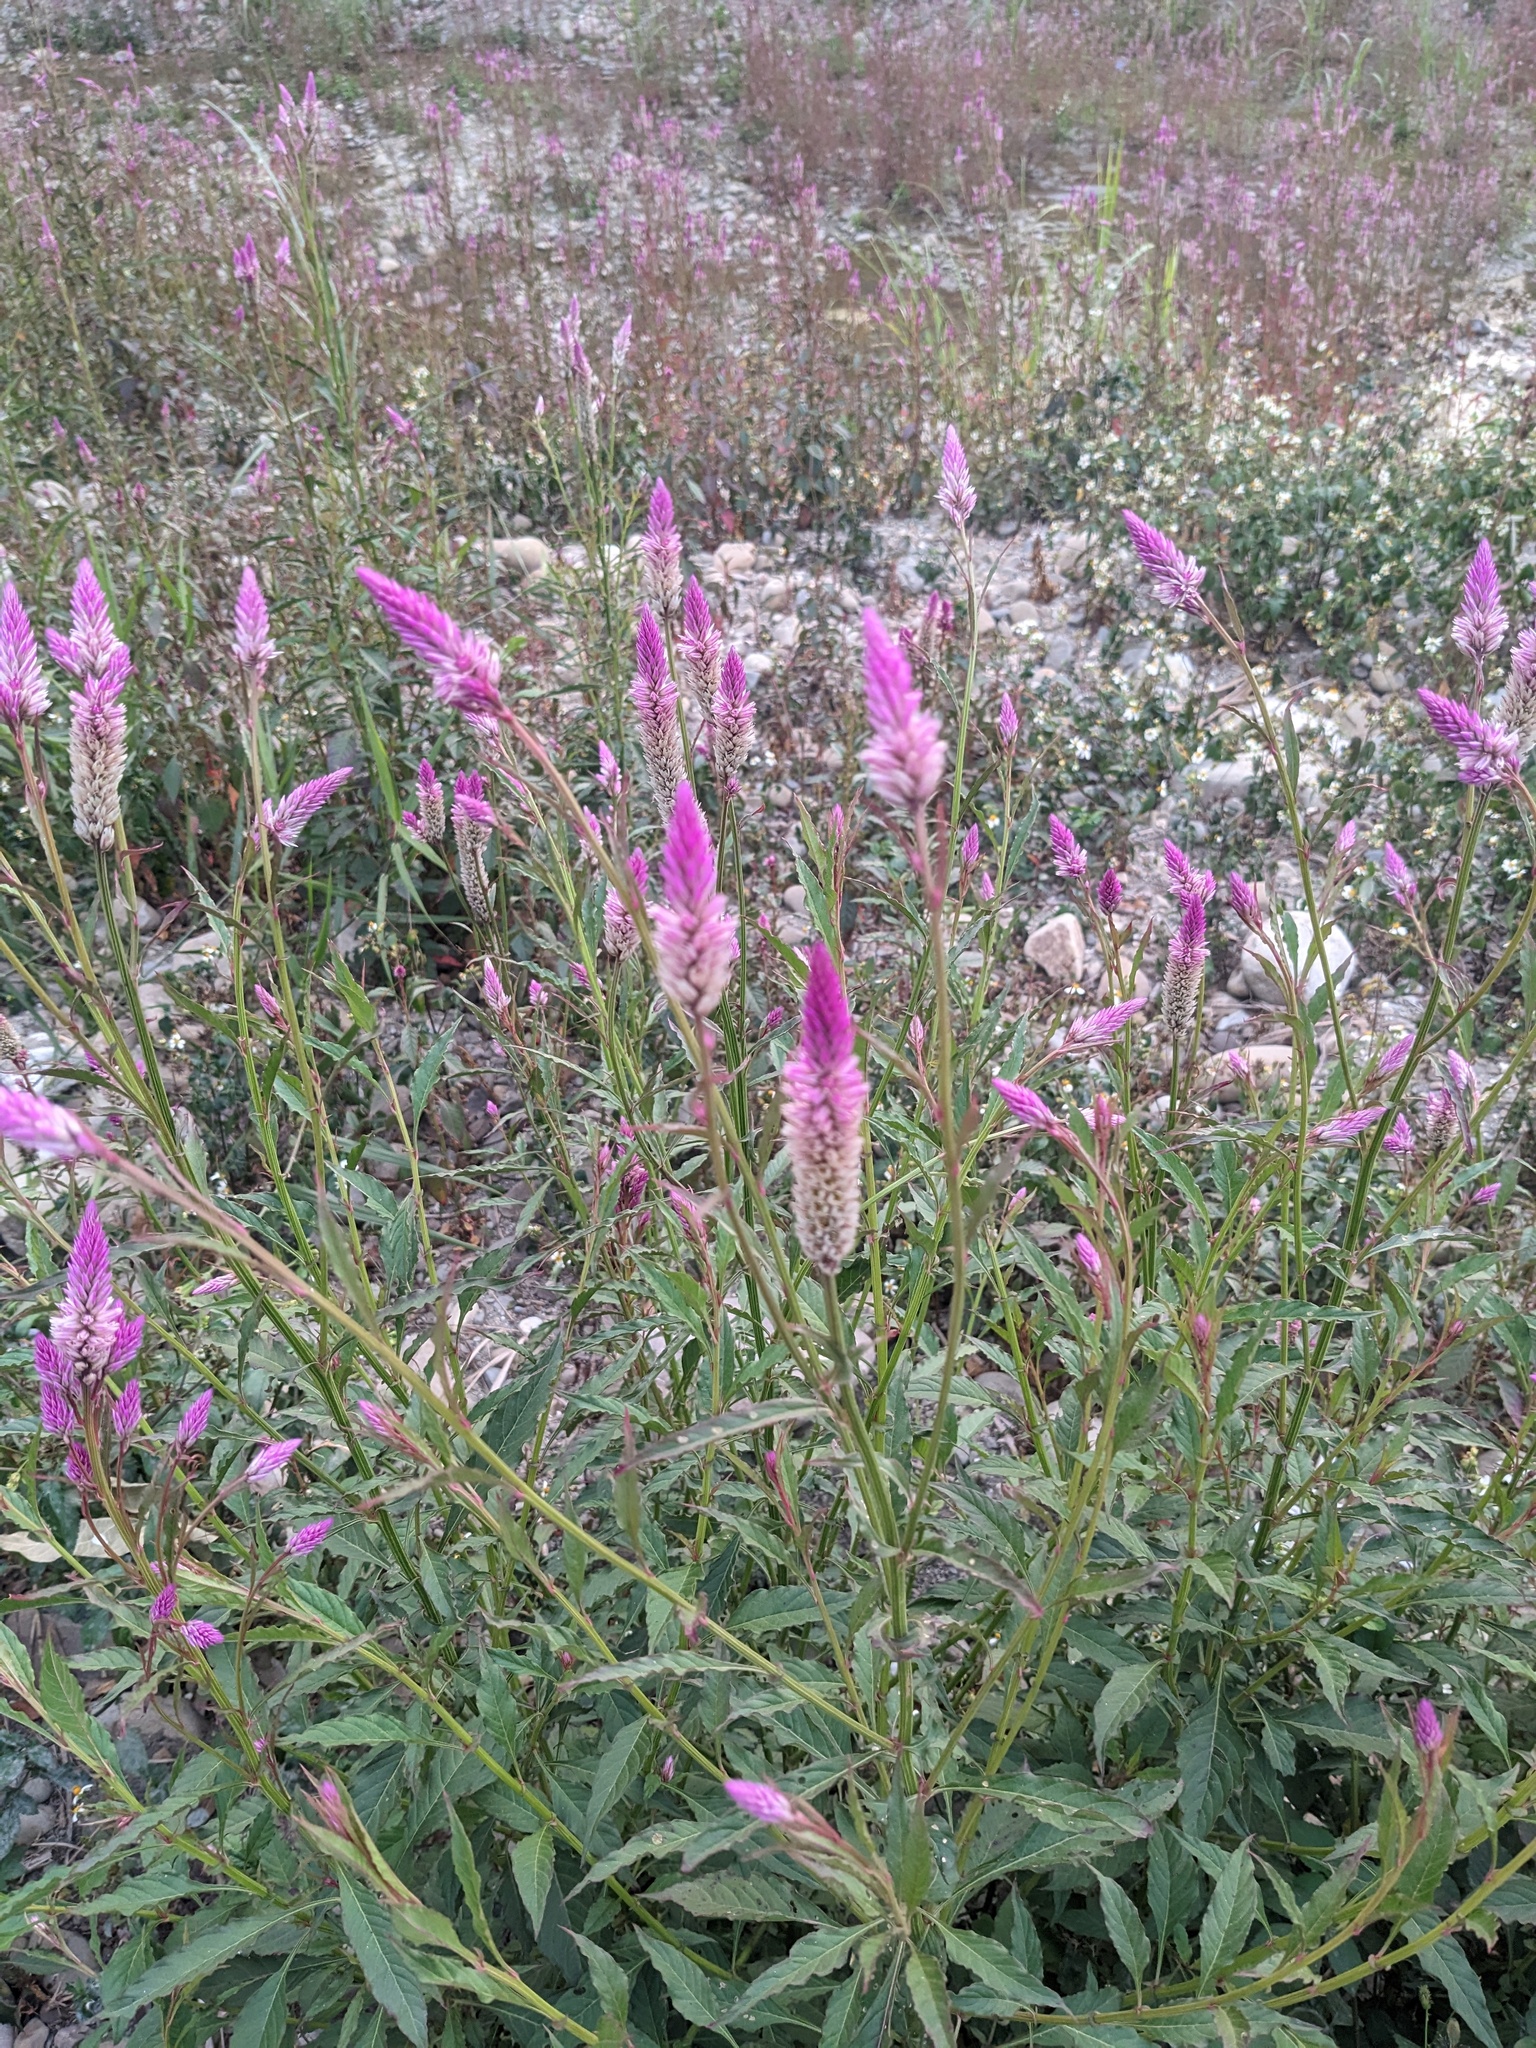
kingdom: Plantae
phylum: Tracheophyta
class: Magnoliopsida
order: Caryophyllales
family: Amaranthaceae
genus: Celosia
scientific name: Celosia argentea
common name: Feather cockscomb
